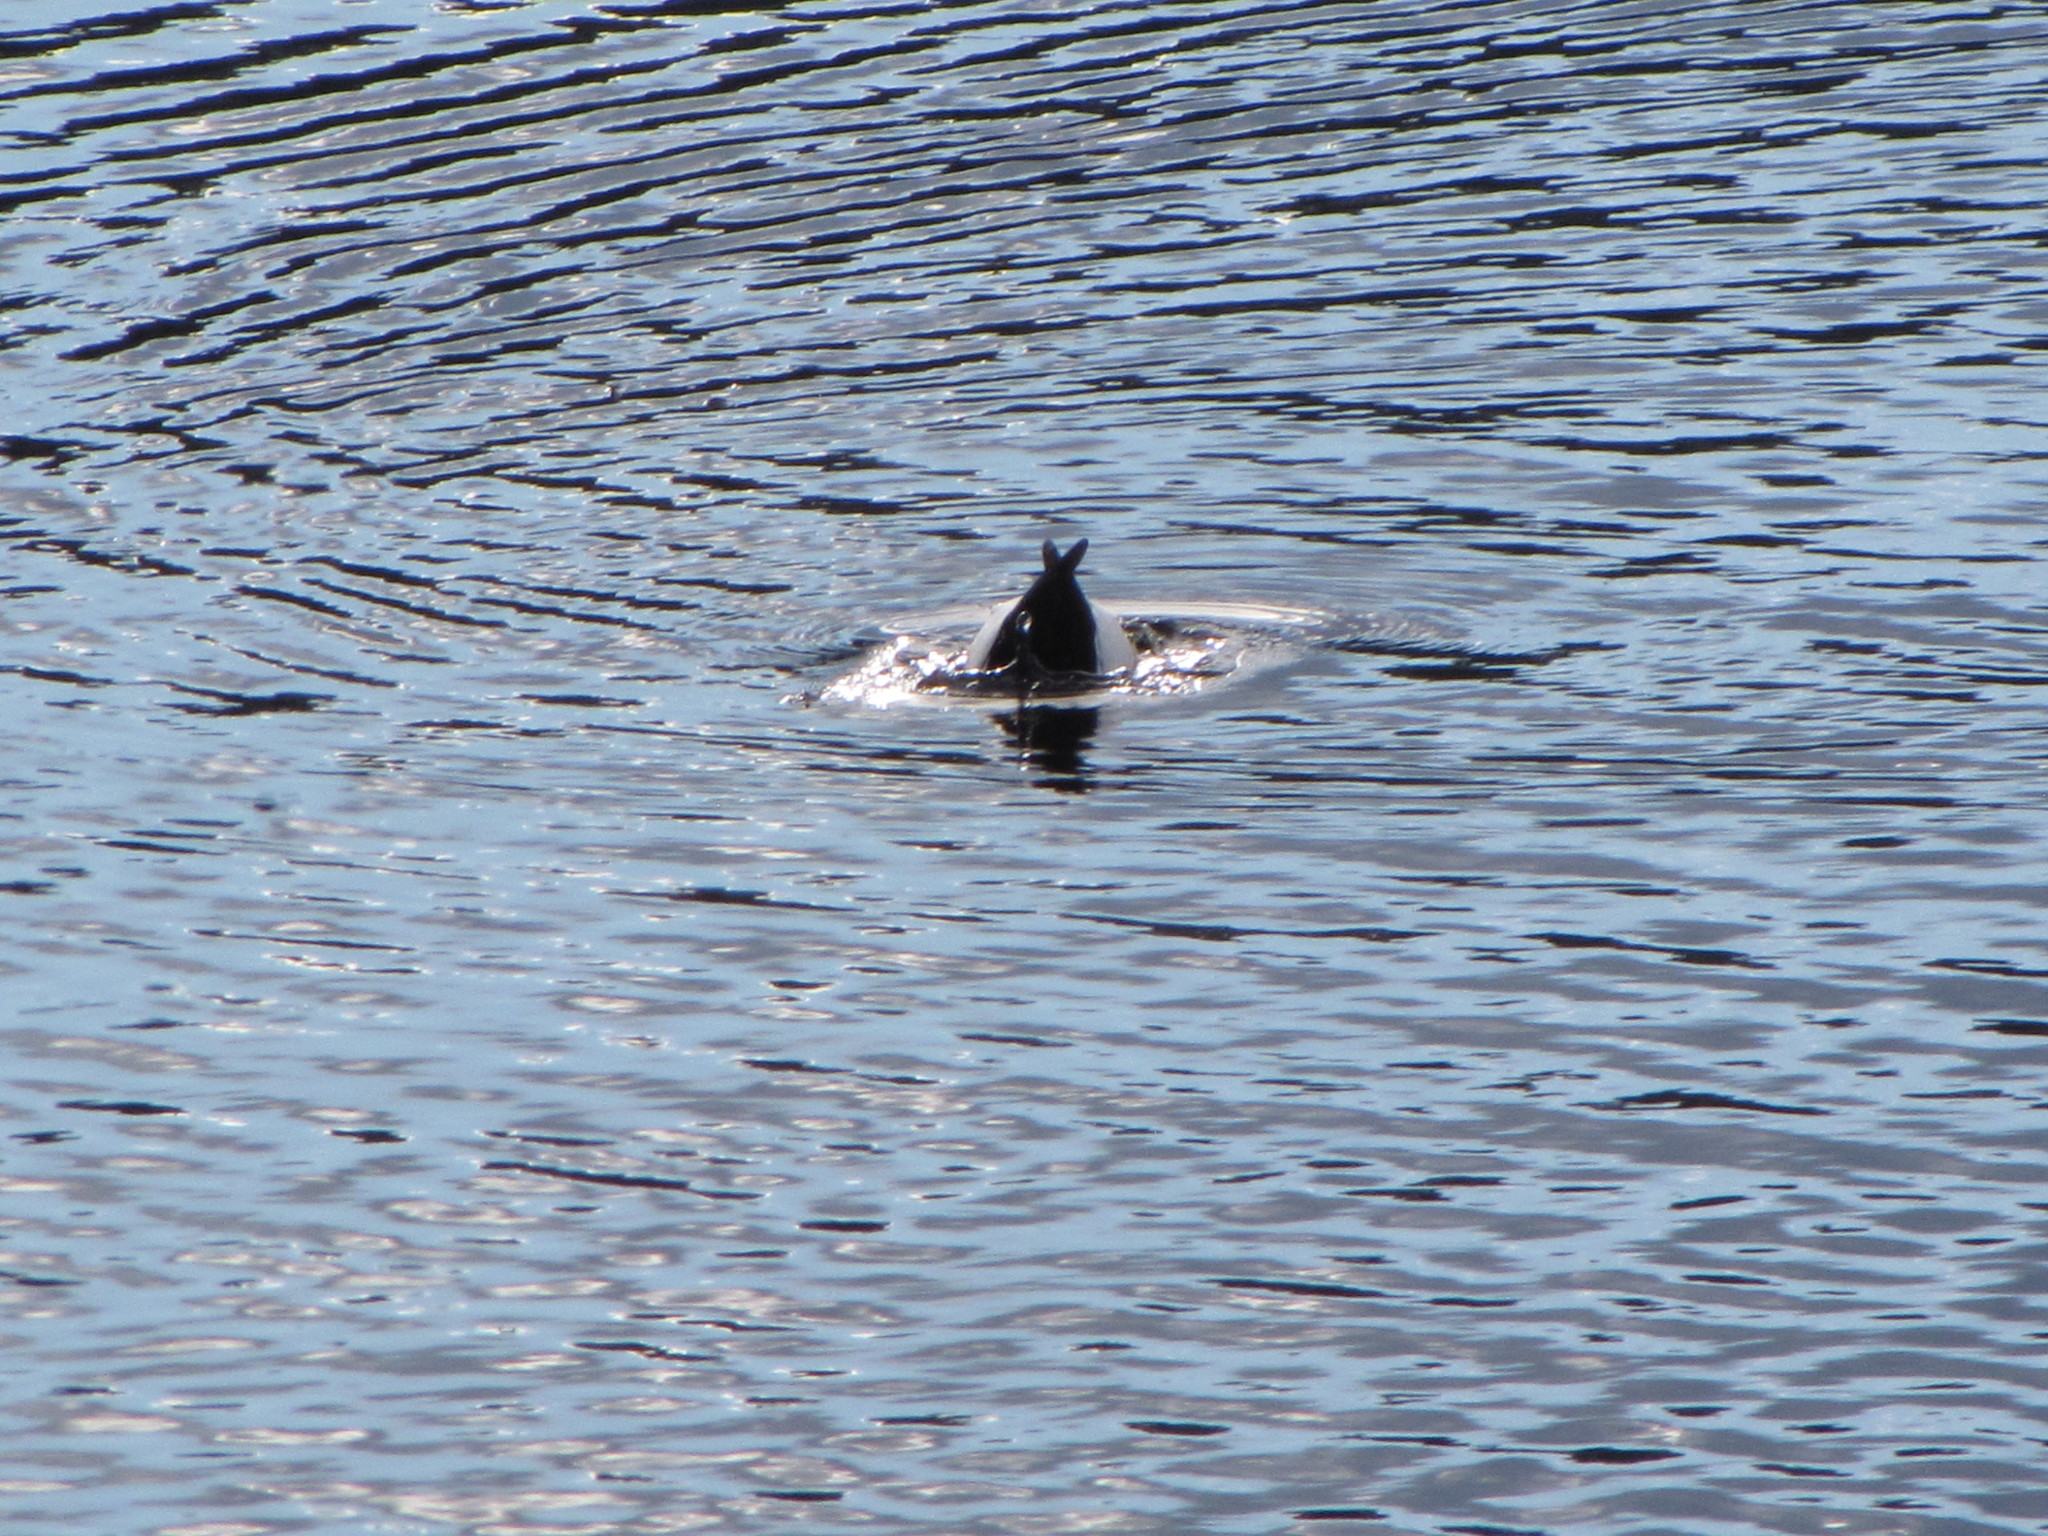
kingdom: Animalia
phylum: Chordata
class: Aves
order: Anseriformes
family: Anatidae
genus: Bucephala
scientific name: Bucephala albeola
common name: Bufflehead
